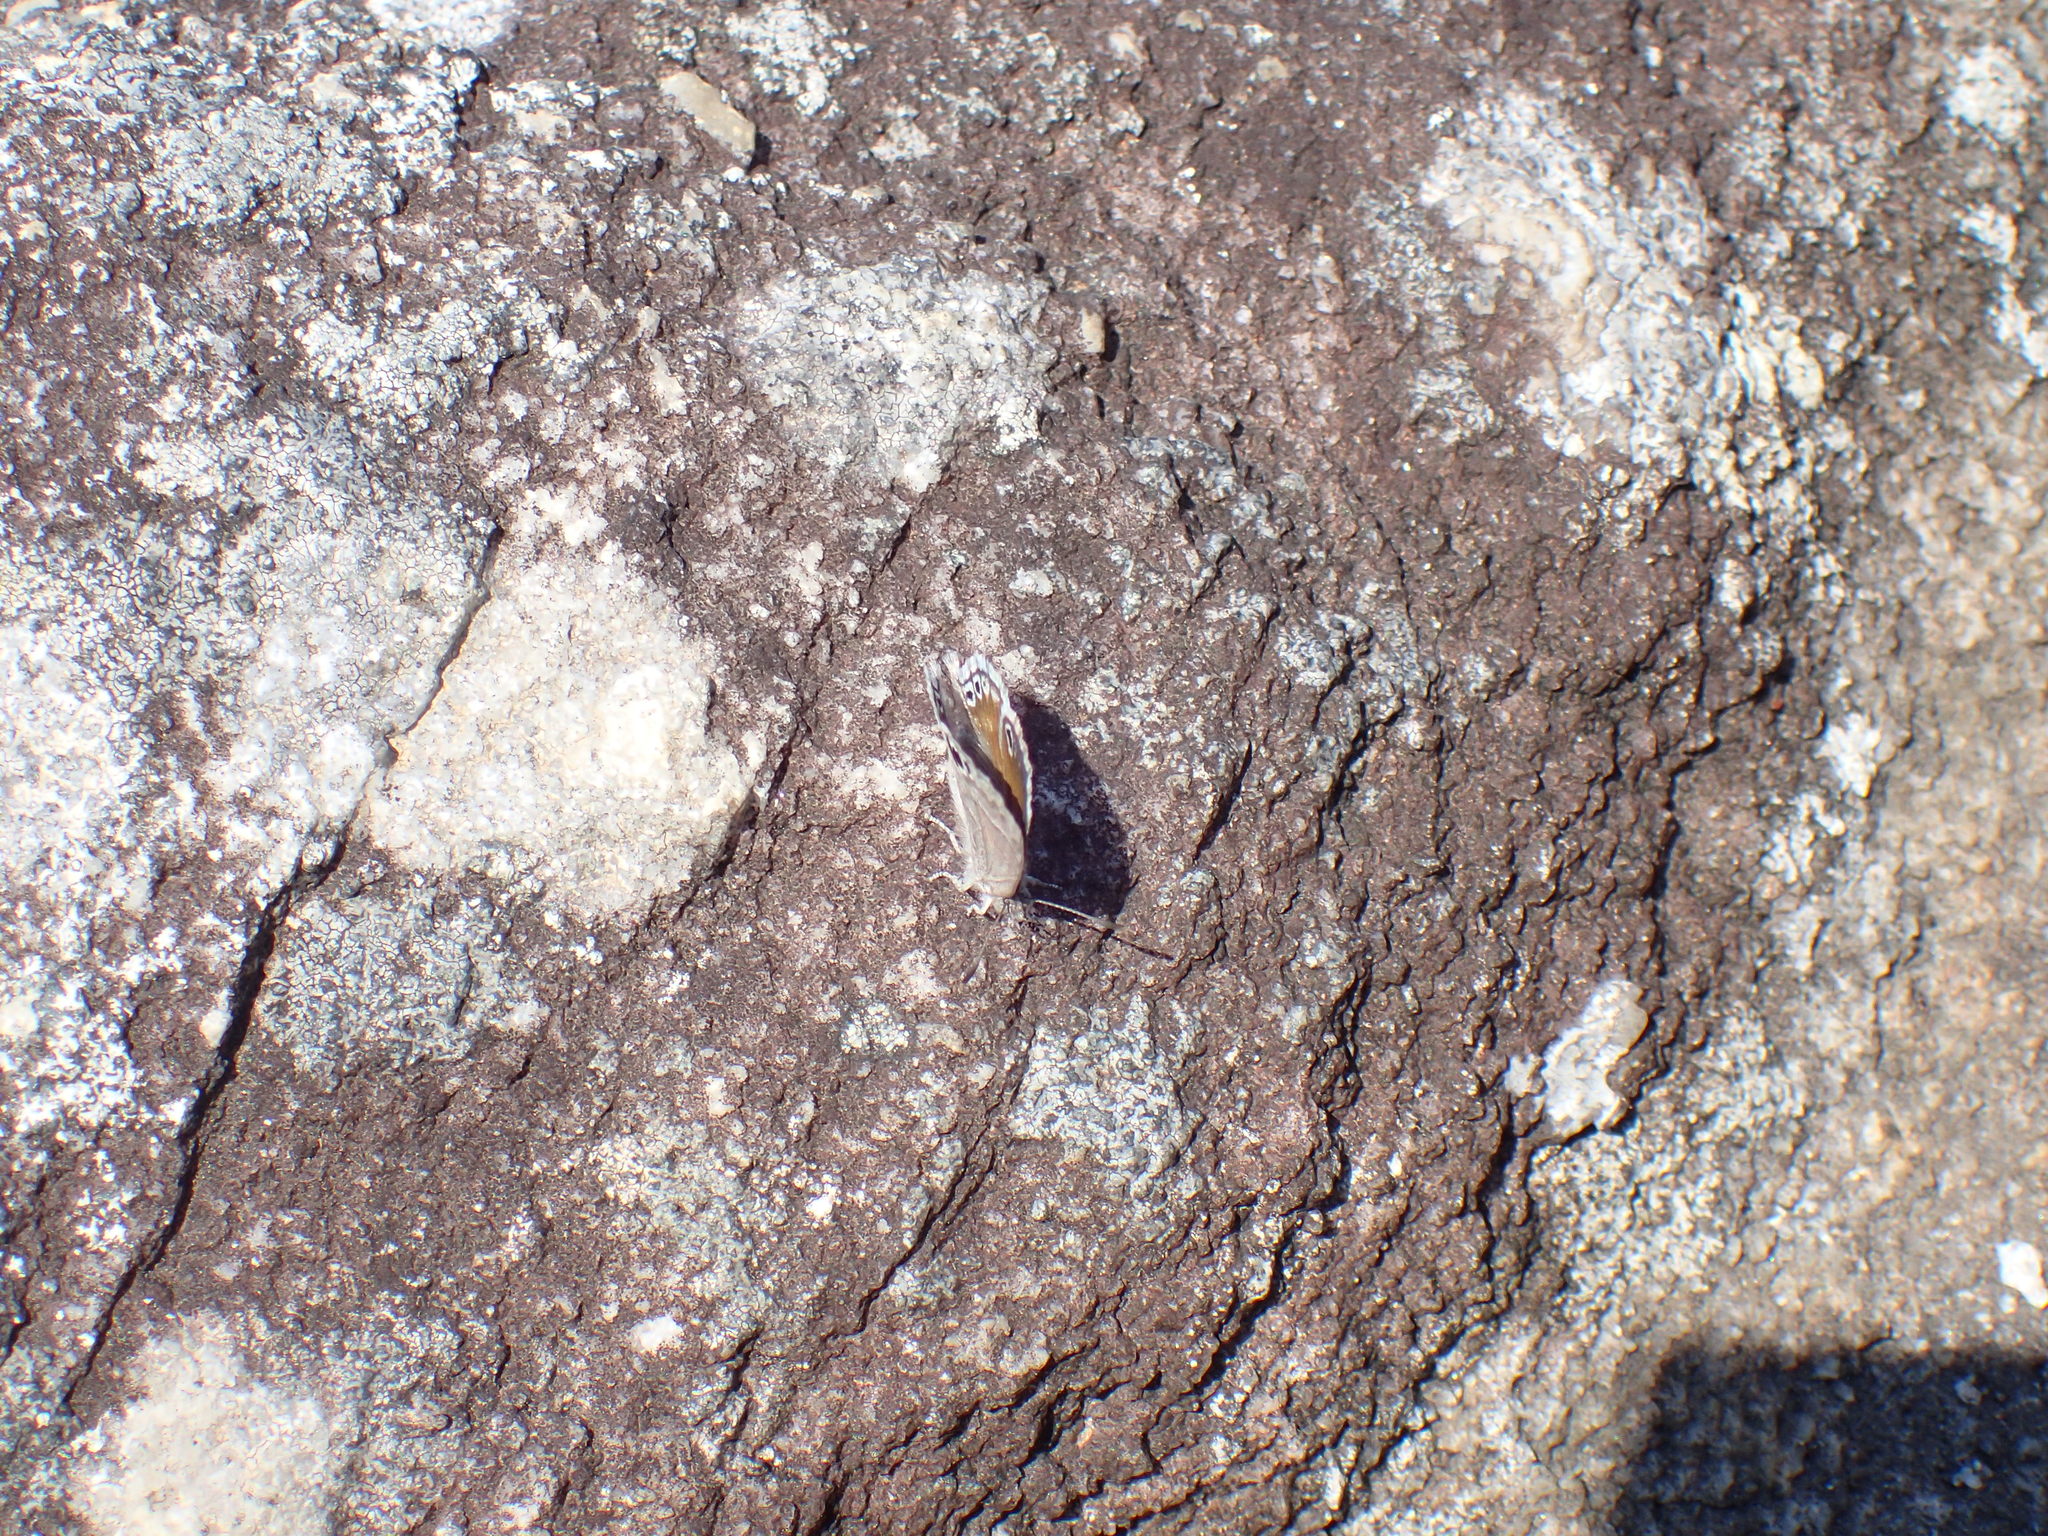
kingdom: Animalia
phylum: Arthropoda
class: Insecta
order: Lepidoptera
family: Lycaenidae
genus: Leptomyrina
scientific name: Leptomyrina gorgias
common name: Common black-eye
